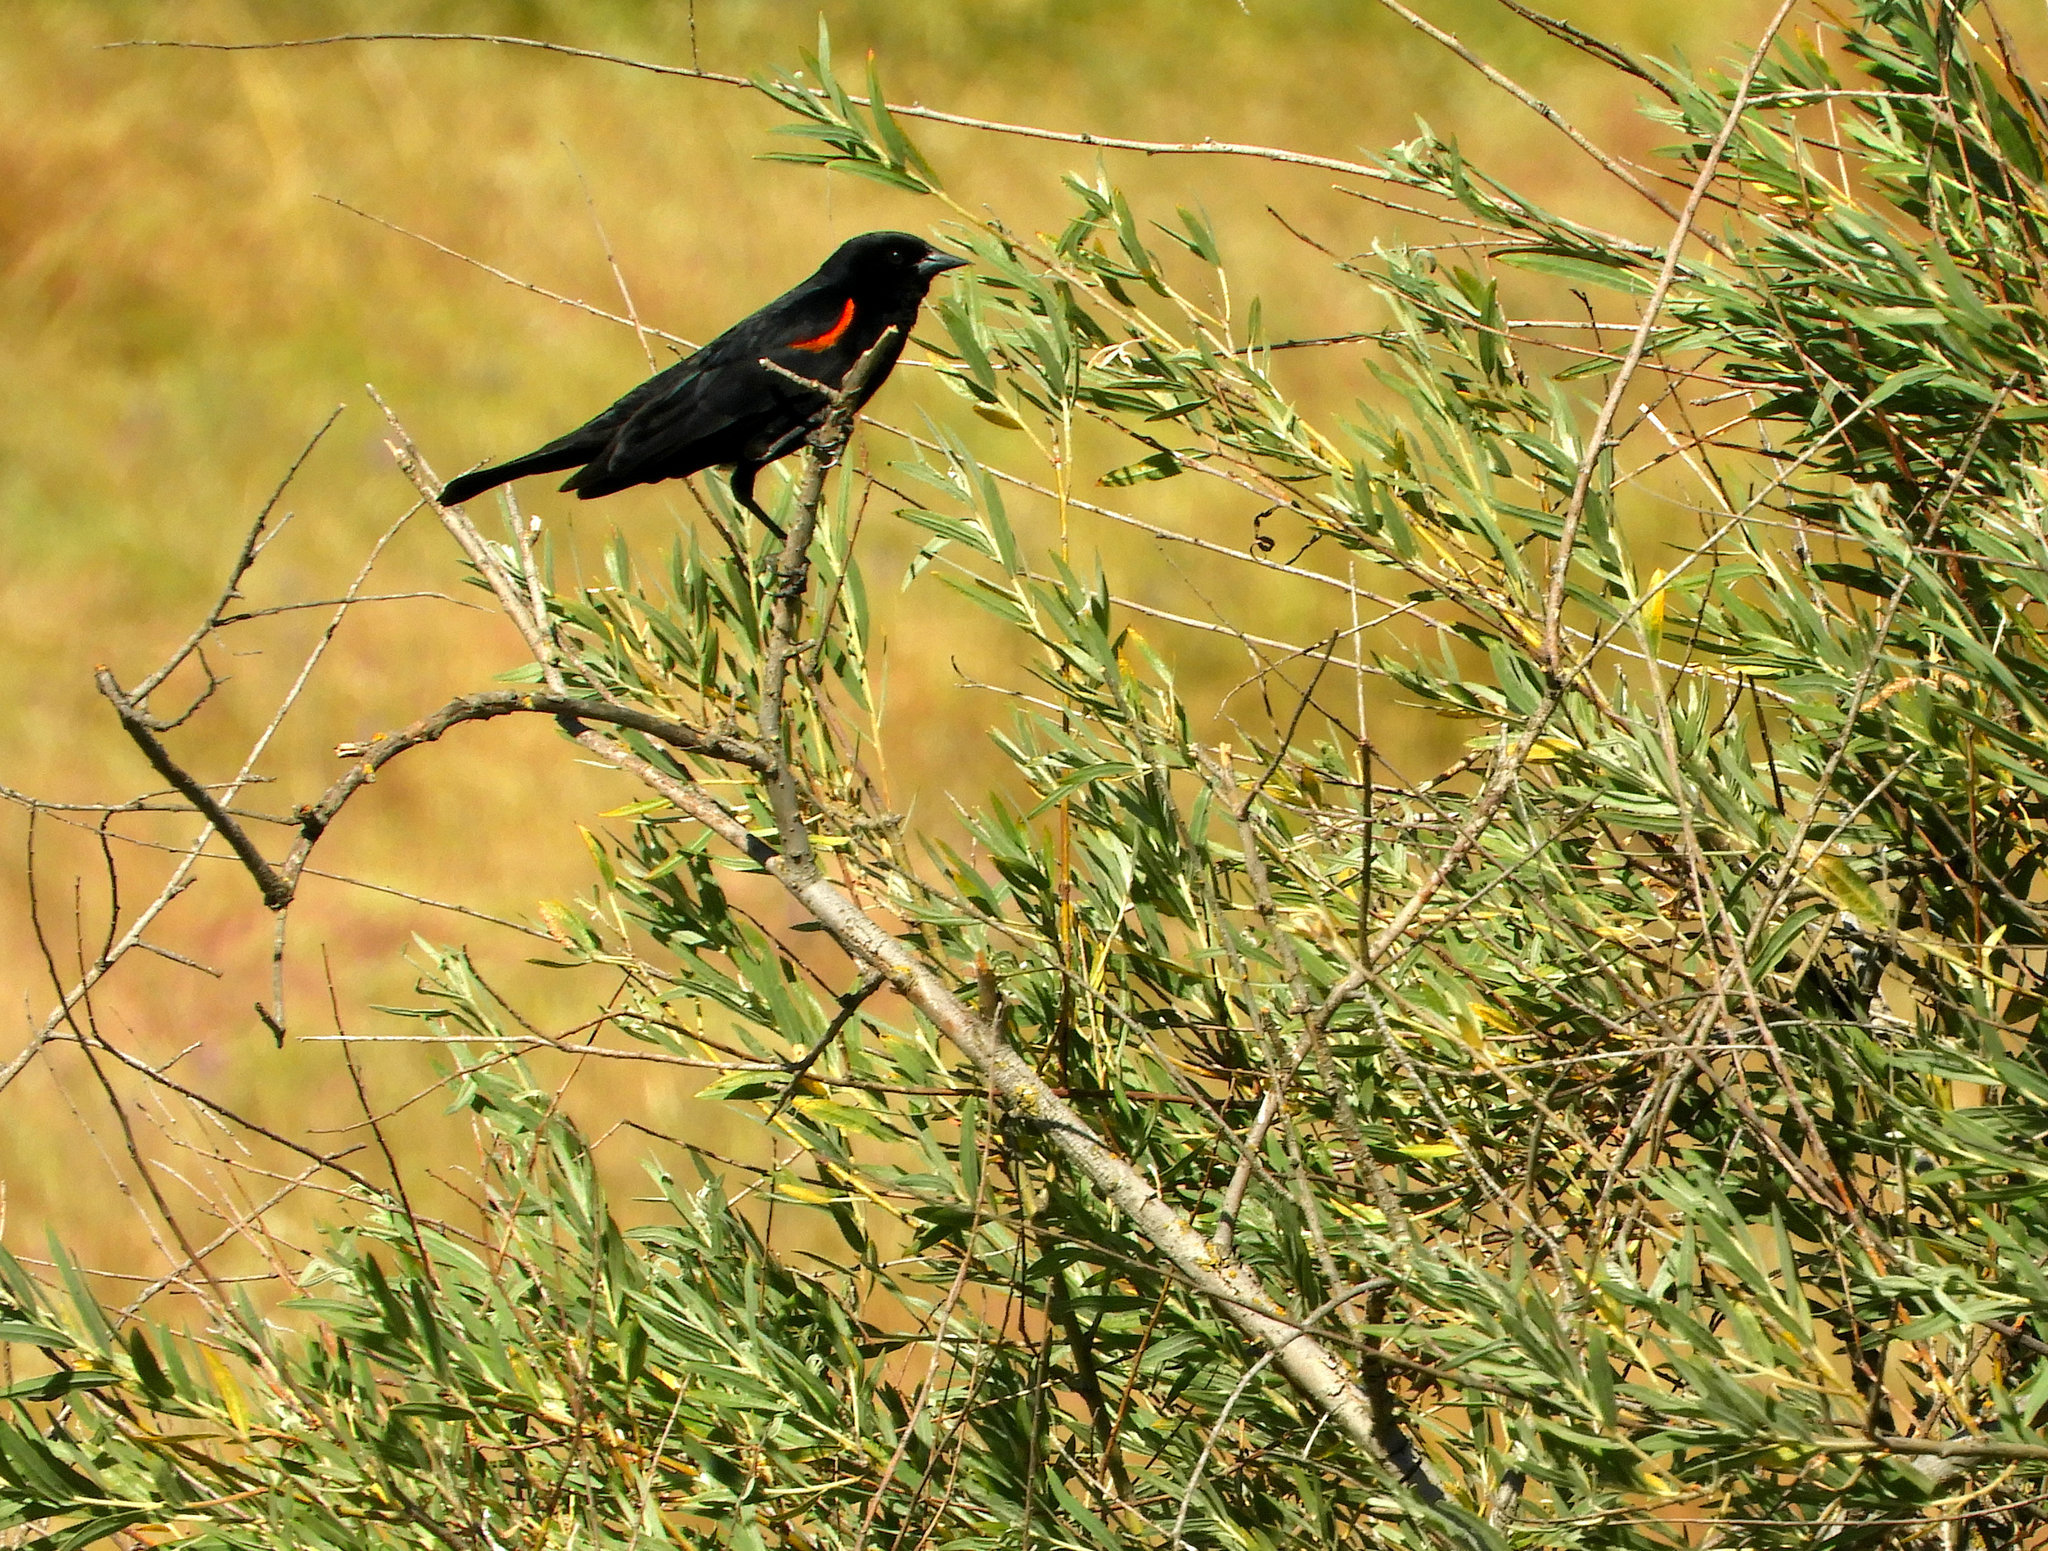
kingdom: Animalia
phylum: Chordata
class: Aves
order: Passeriformes
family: Icteridae
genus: Agelaius
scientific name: Agelaius phoeniceus
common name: Red-winged blackbird
